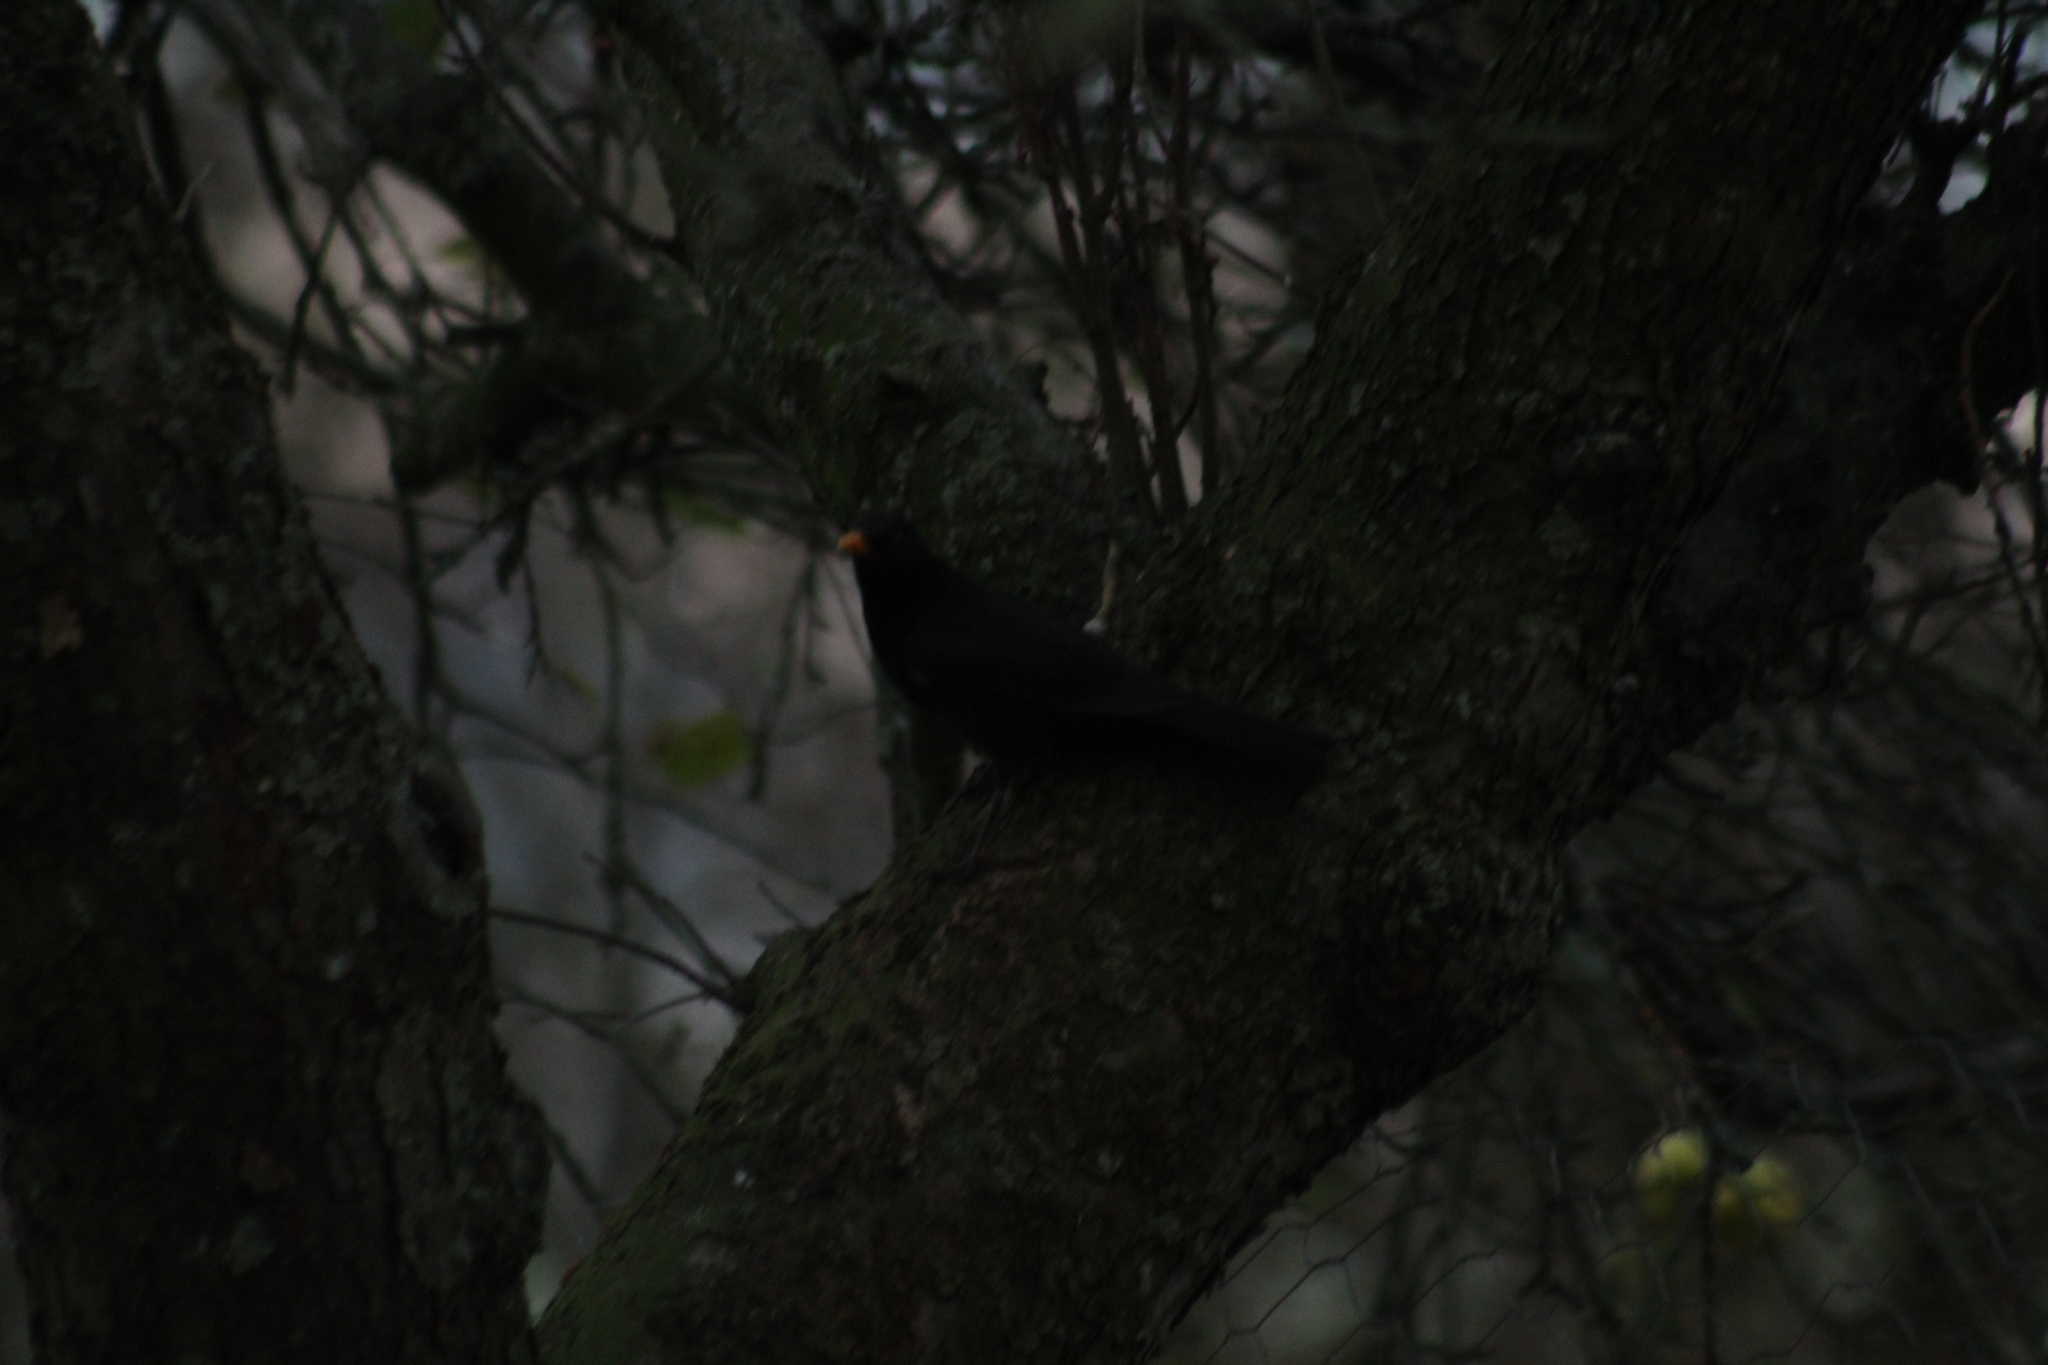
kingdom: Animalia
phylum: Chordata
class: Aves
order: Passeriformes
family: Turdidae
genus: Turdus
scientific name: Turdus merula
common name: Common blackbird
